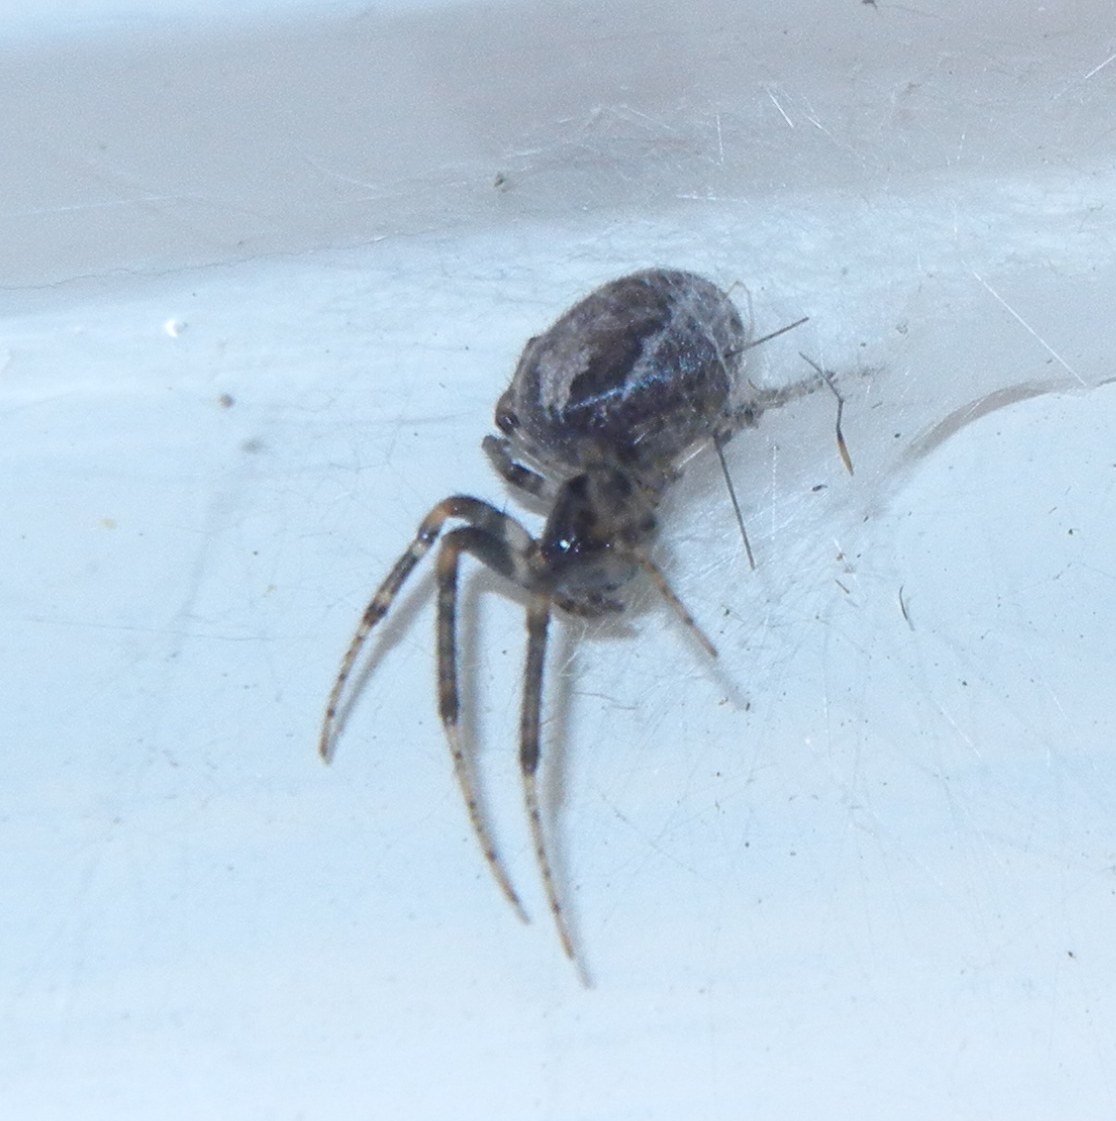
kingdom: Animalia
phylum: Arthropoda
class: Arachnida
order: Araneae
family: Araneidae
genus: Zygiella
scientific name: Zygiella x-notata
